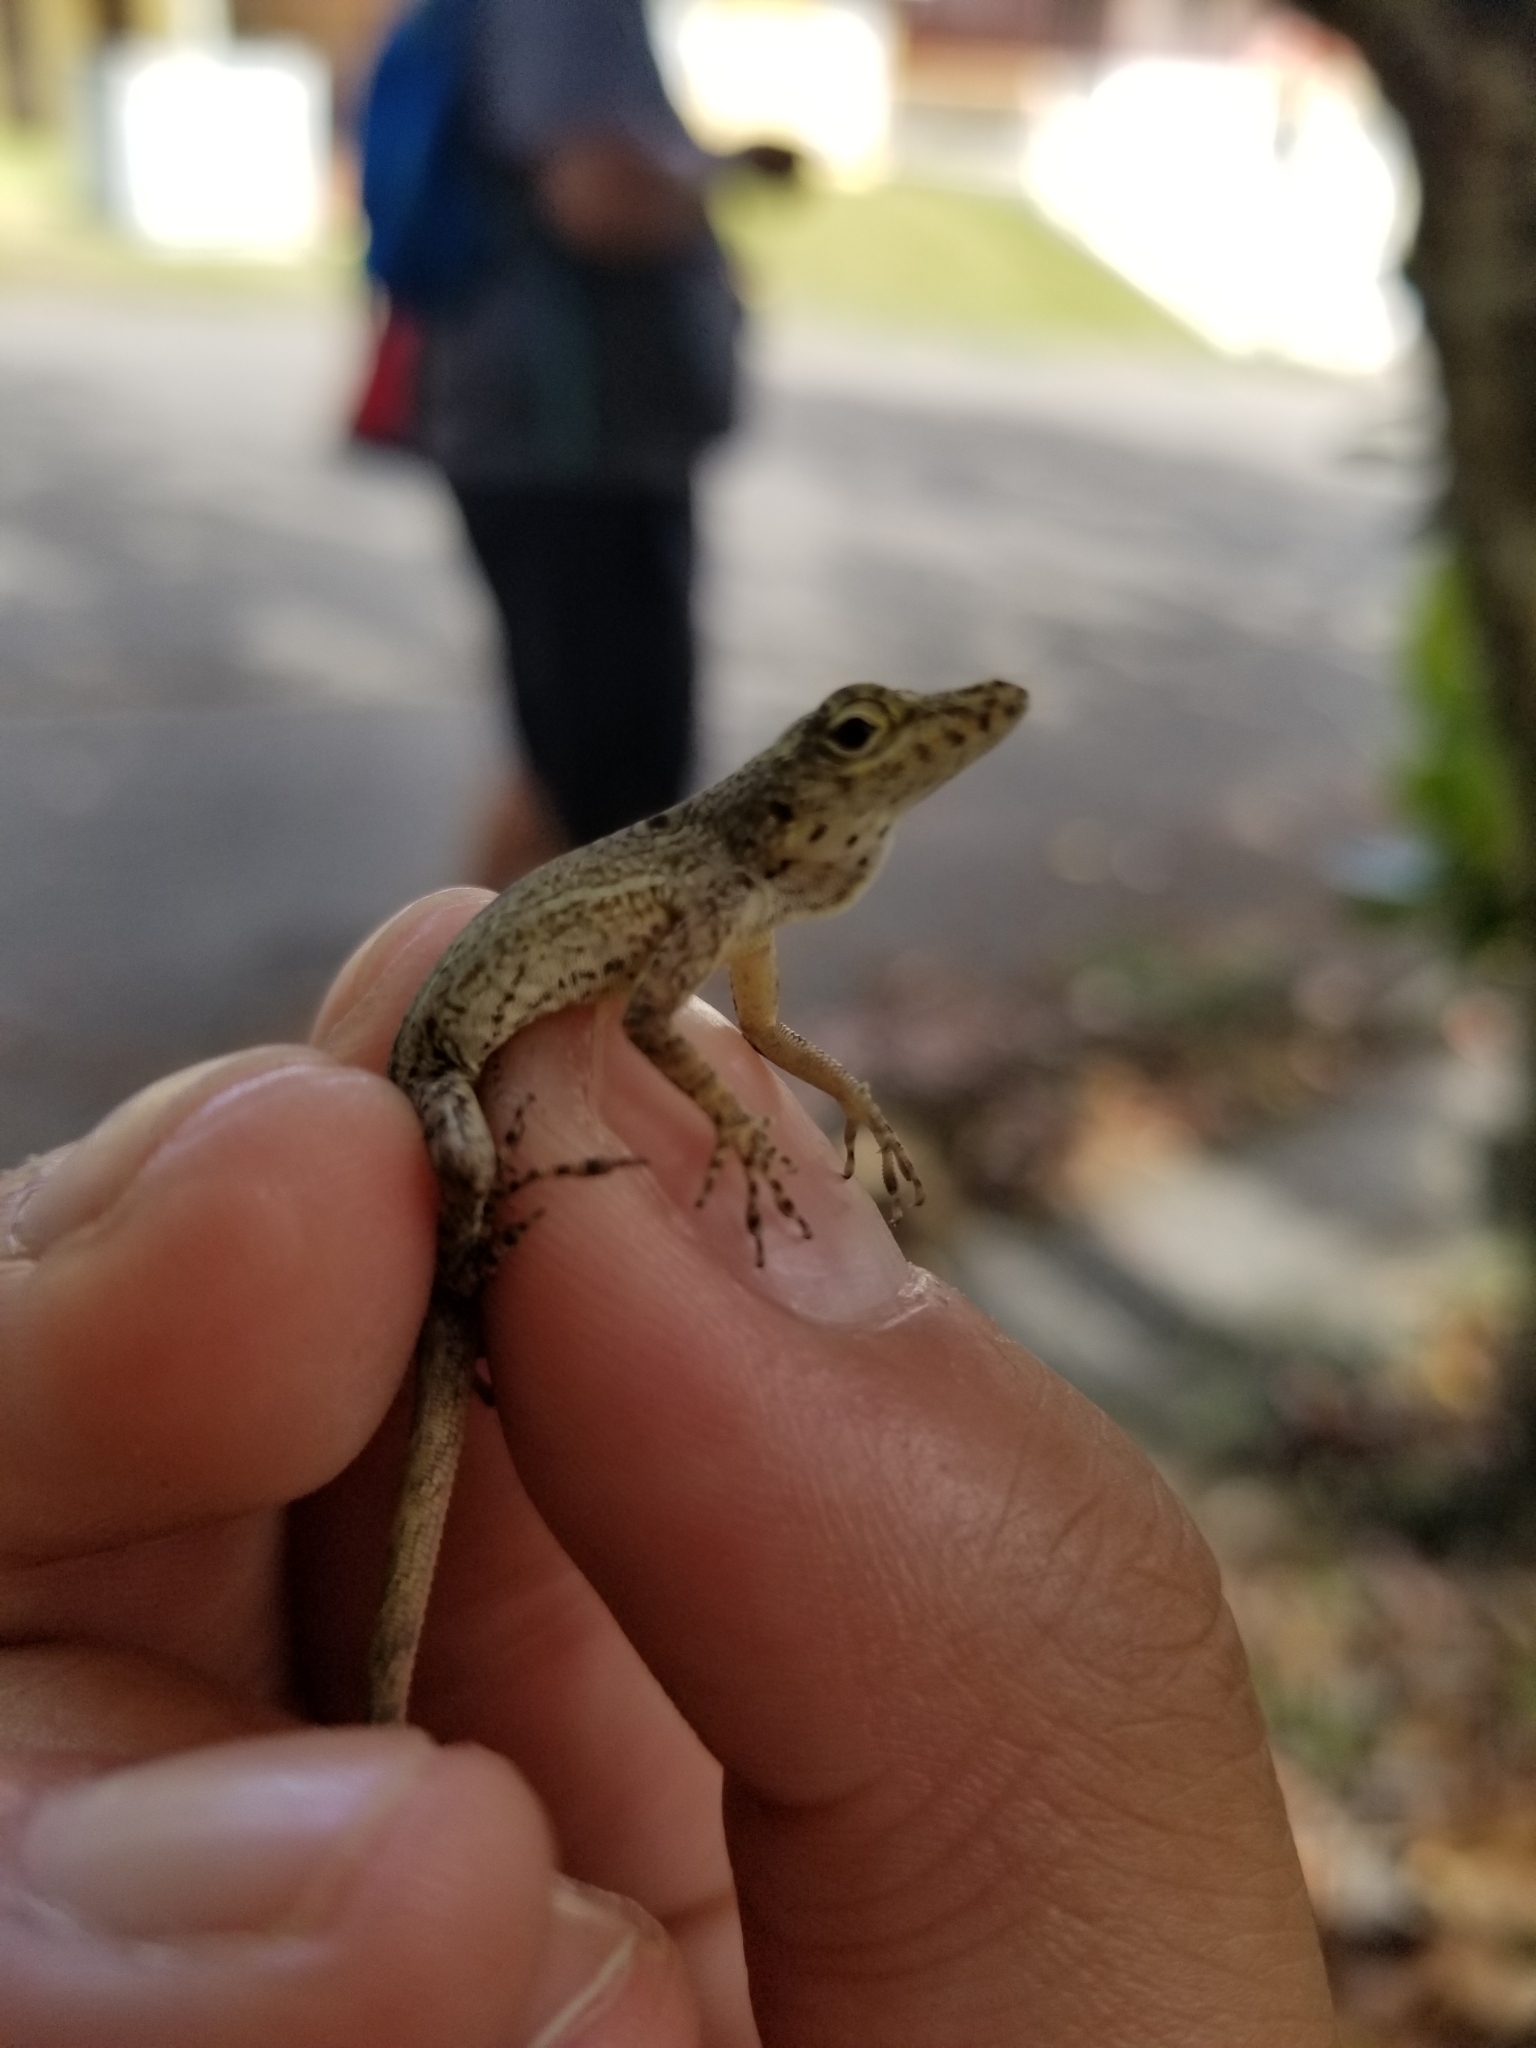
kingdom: Animalia
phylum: Chordata
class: Squamata
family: Dactyloidae
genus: Anolis
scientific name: Anolis stratulus
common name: Banded anole
